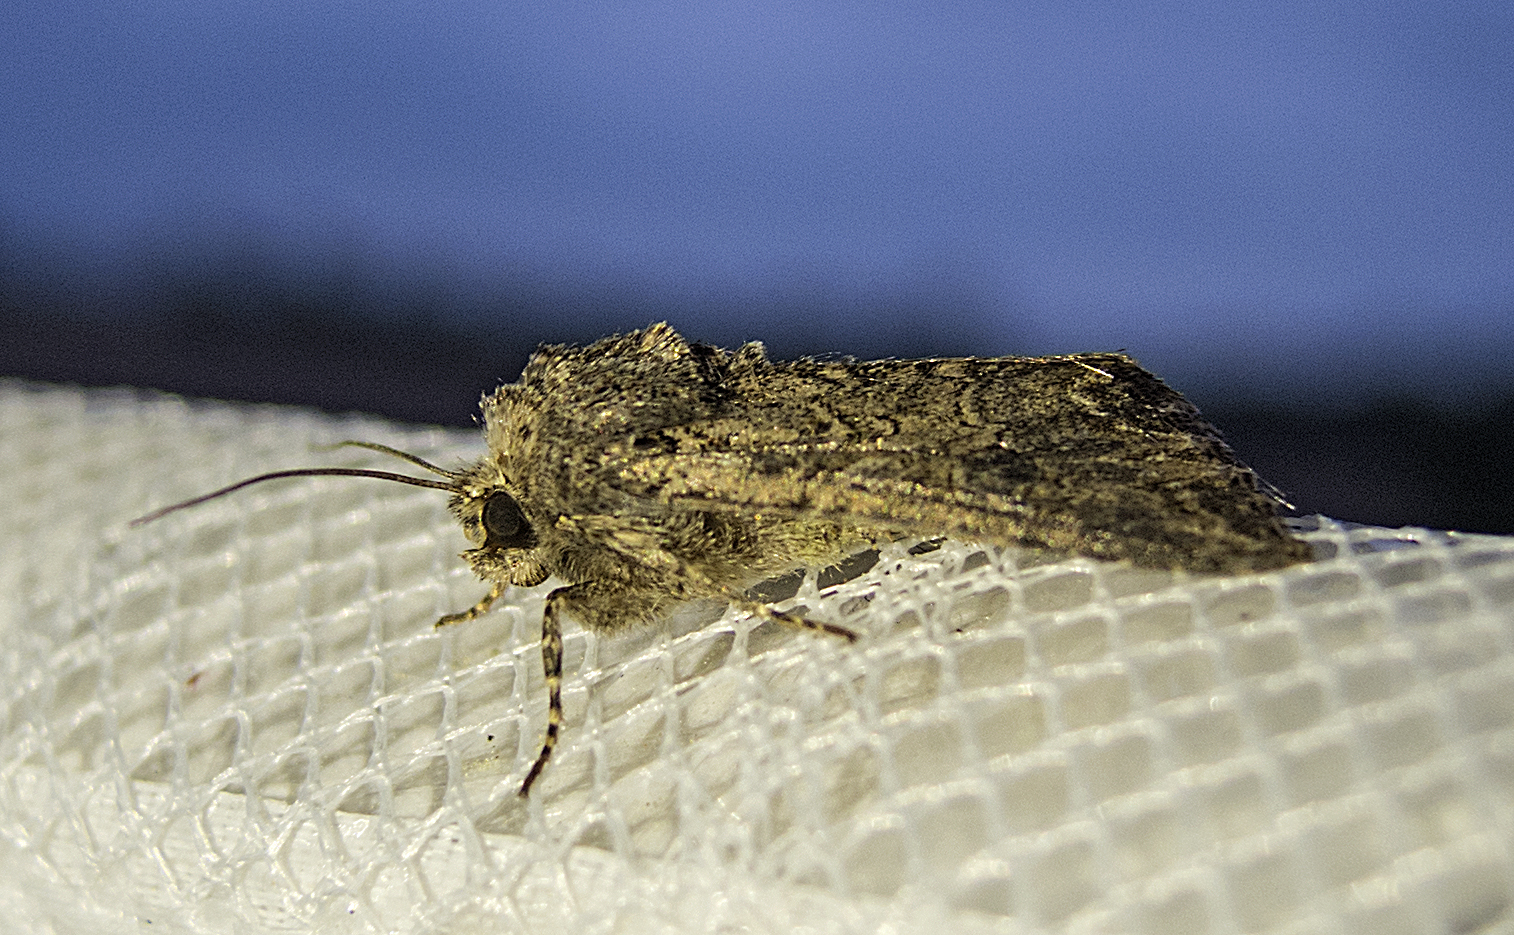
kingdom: Animalia
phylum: Arthropoda
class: Insecta
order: Lepidoptera
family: Noctuidae
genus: Anarta
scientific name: Anarta trifolii
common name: Clover cutworm moth
